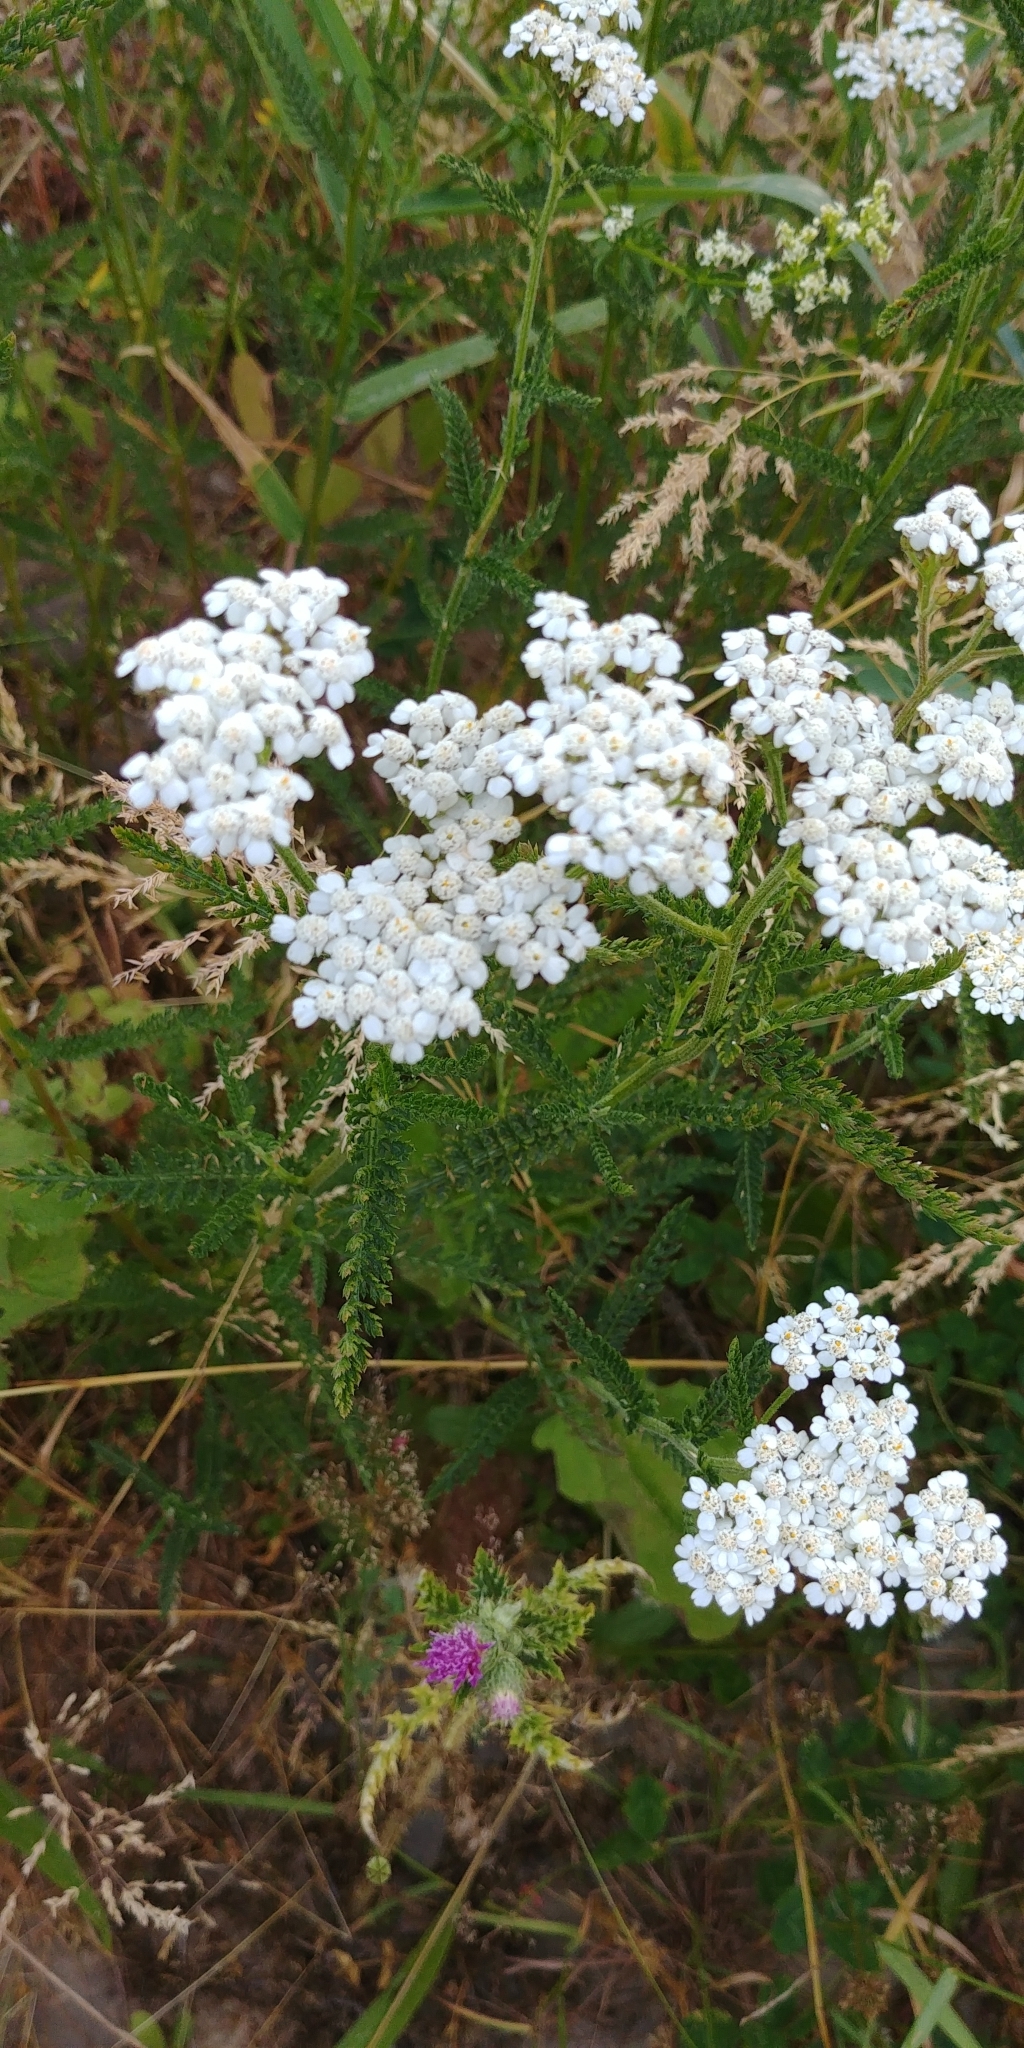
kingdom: Plantae
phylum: Tracheophyta
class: Magnoliopsida
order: Asterales
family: Asteraceae
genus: Achillea
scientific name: Achillea millefolium
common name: Yarrow
